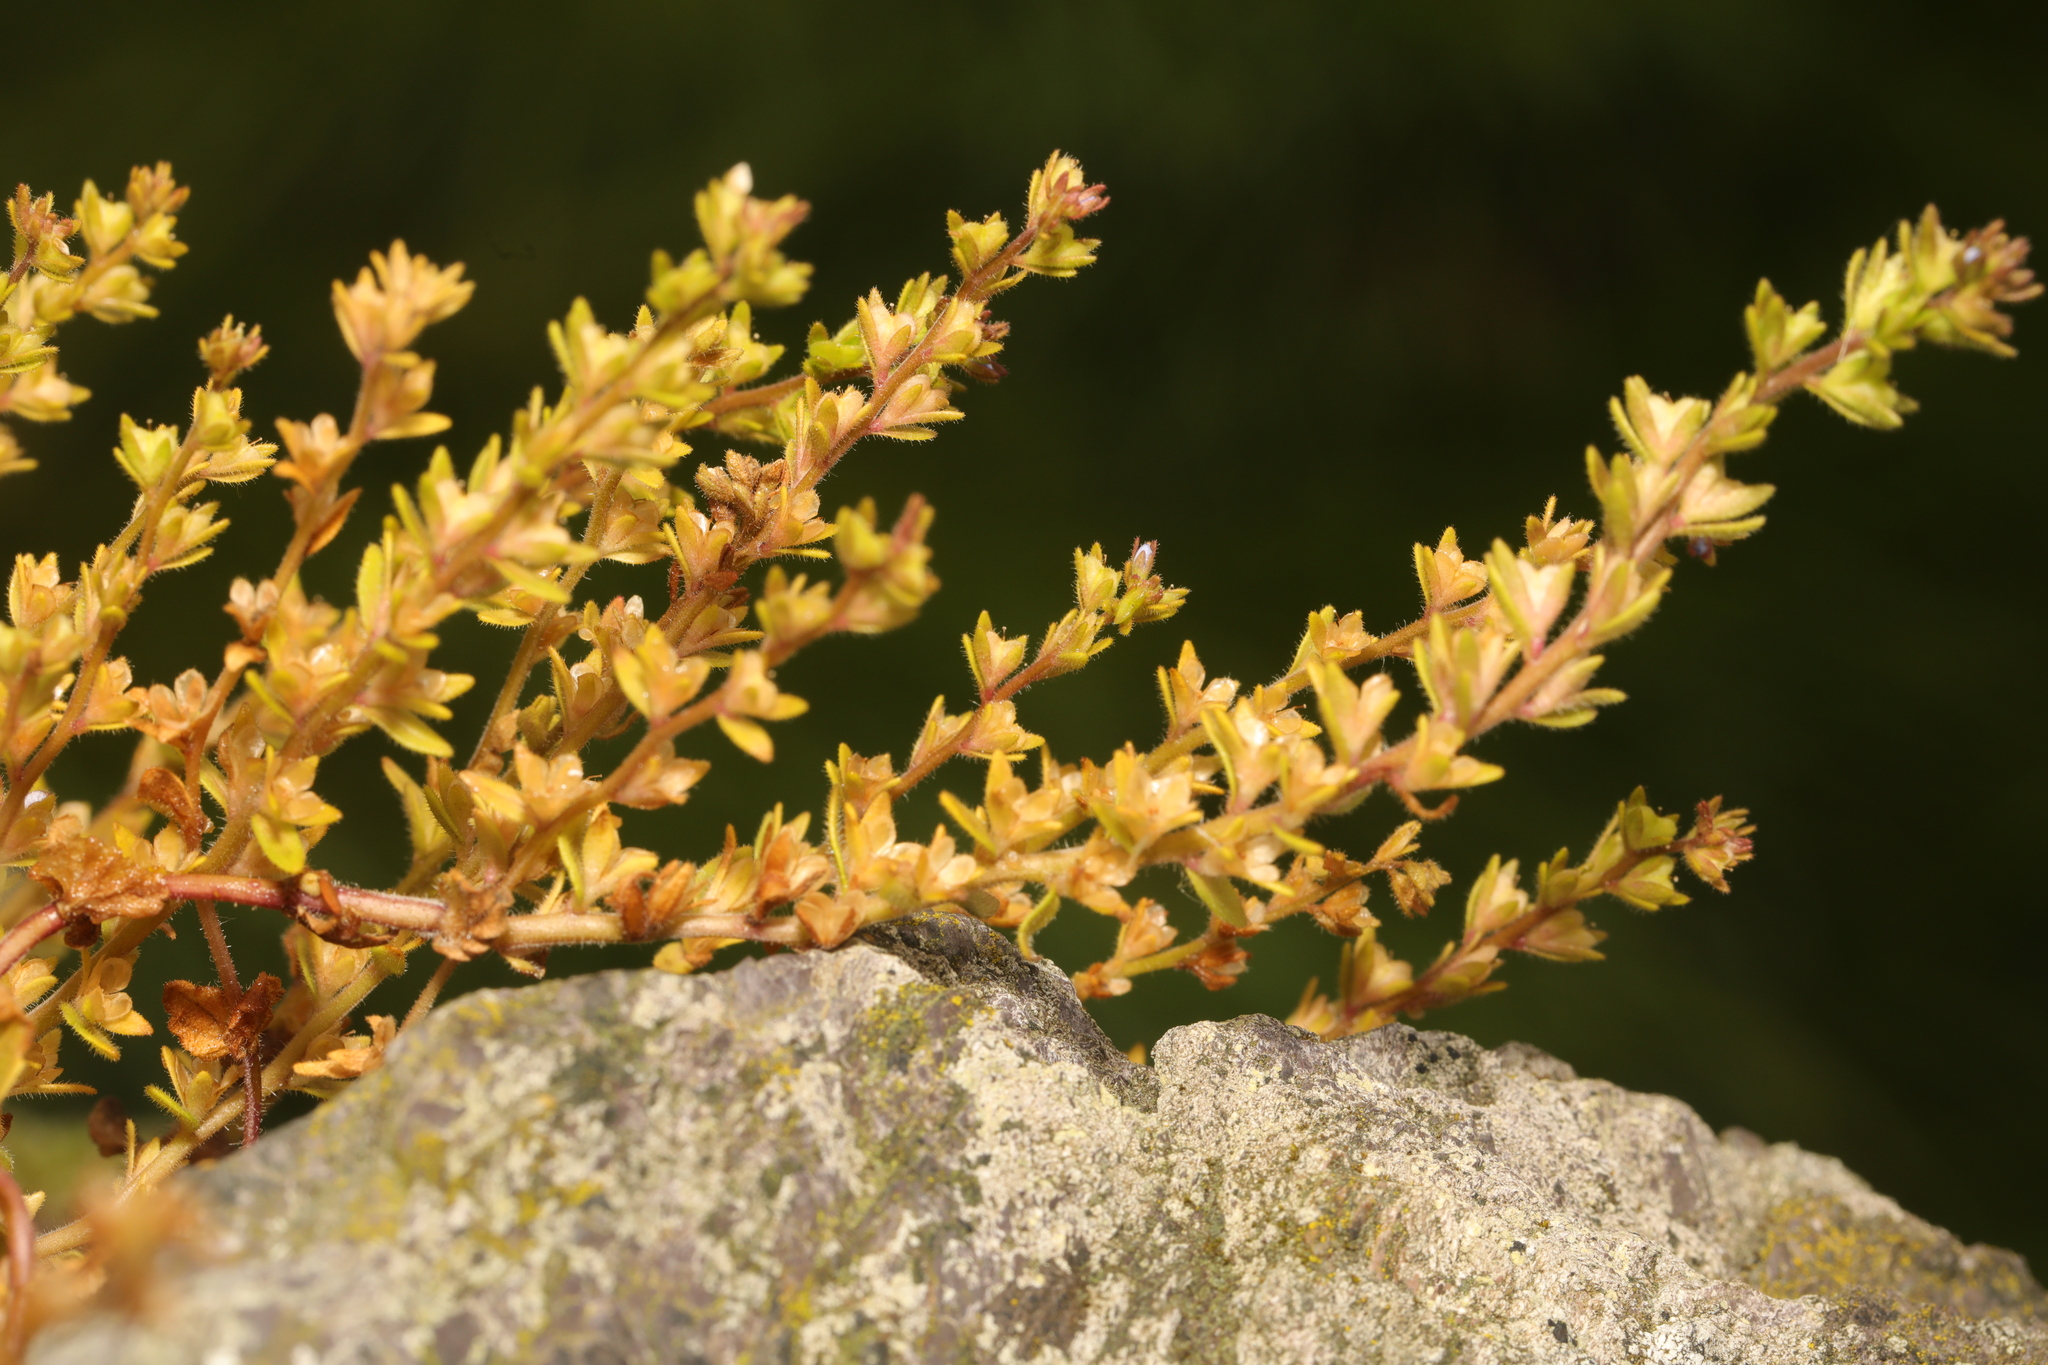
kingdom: Plantae
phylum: Tracheophyta
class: Magnoliopsida
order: Lamiales
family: Plantaginaceae
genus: Veronica
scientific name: Veronica arvensis
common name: Corn speedwell
